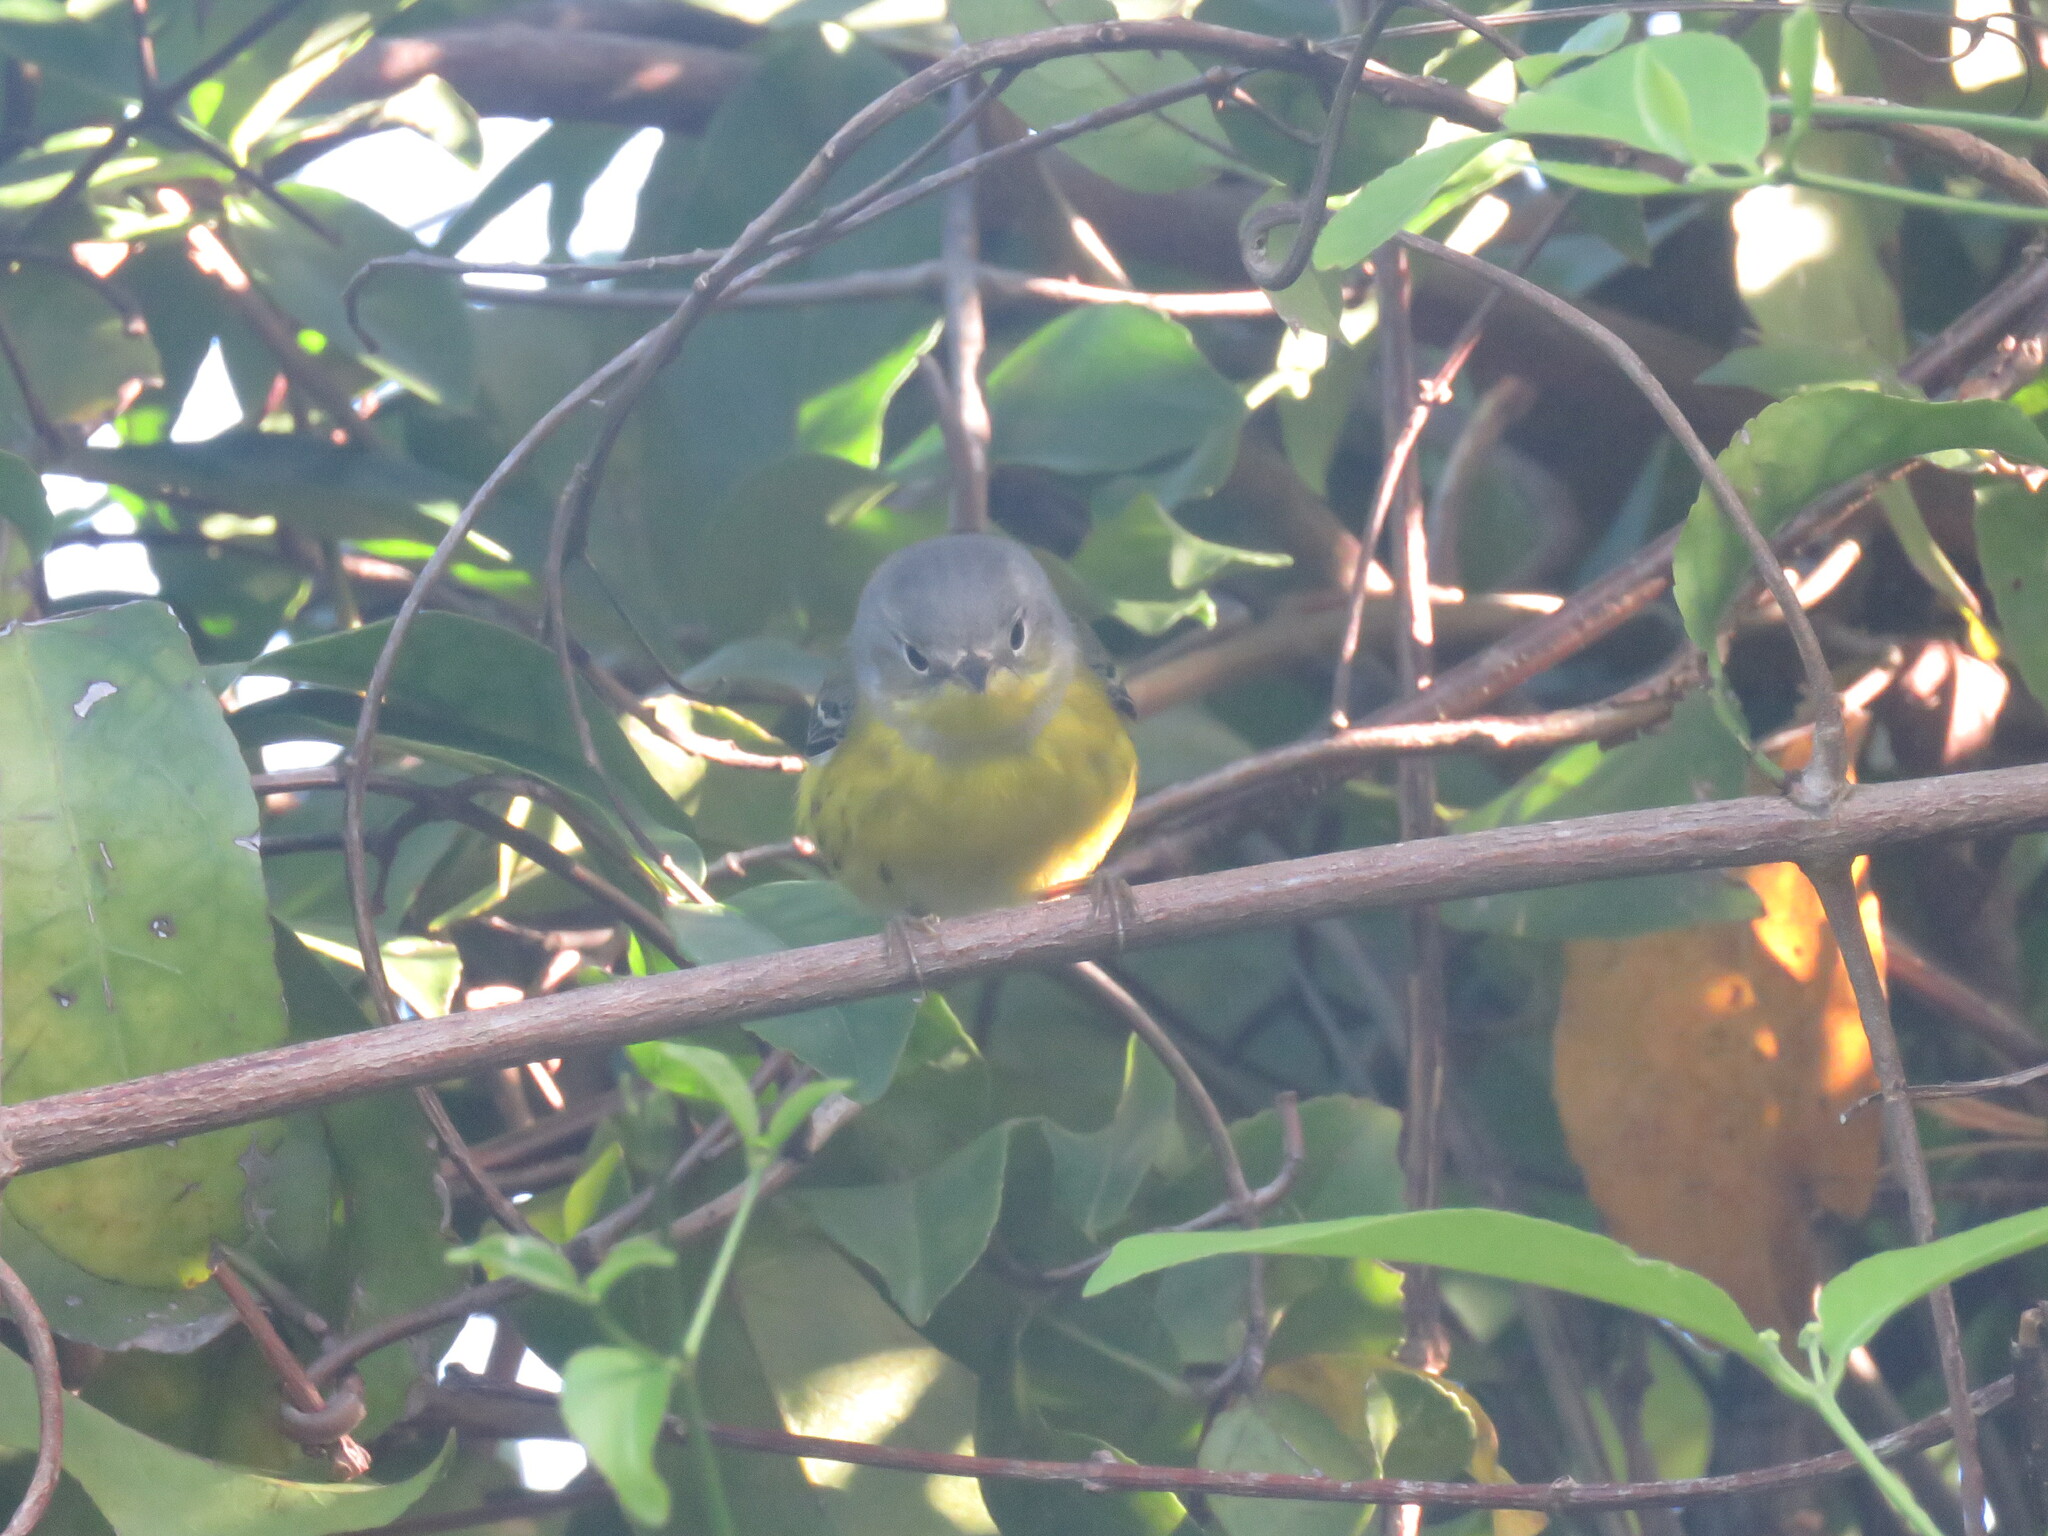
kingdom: Animalia
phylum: Chordata
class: Aves
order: Passeriformes
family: Parulidae
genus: Setophaga
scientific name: Setophaga magnolia
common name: Magnolia warbler
